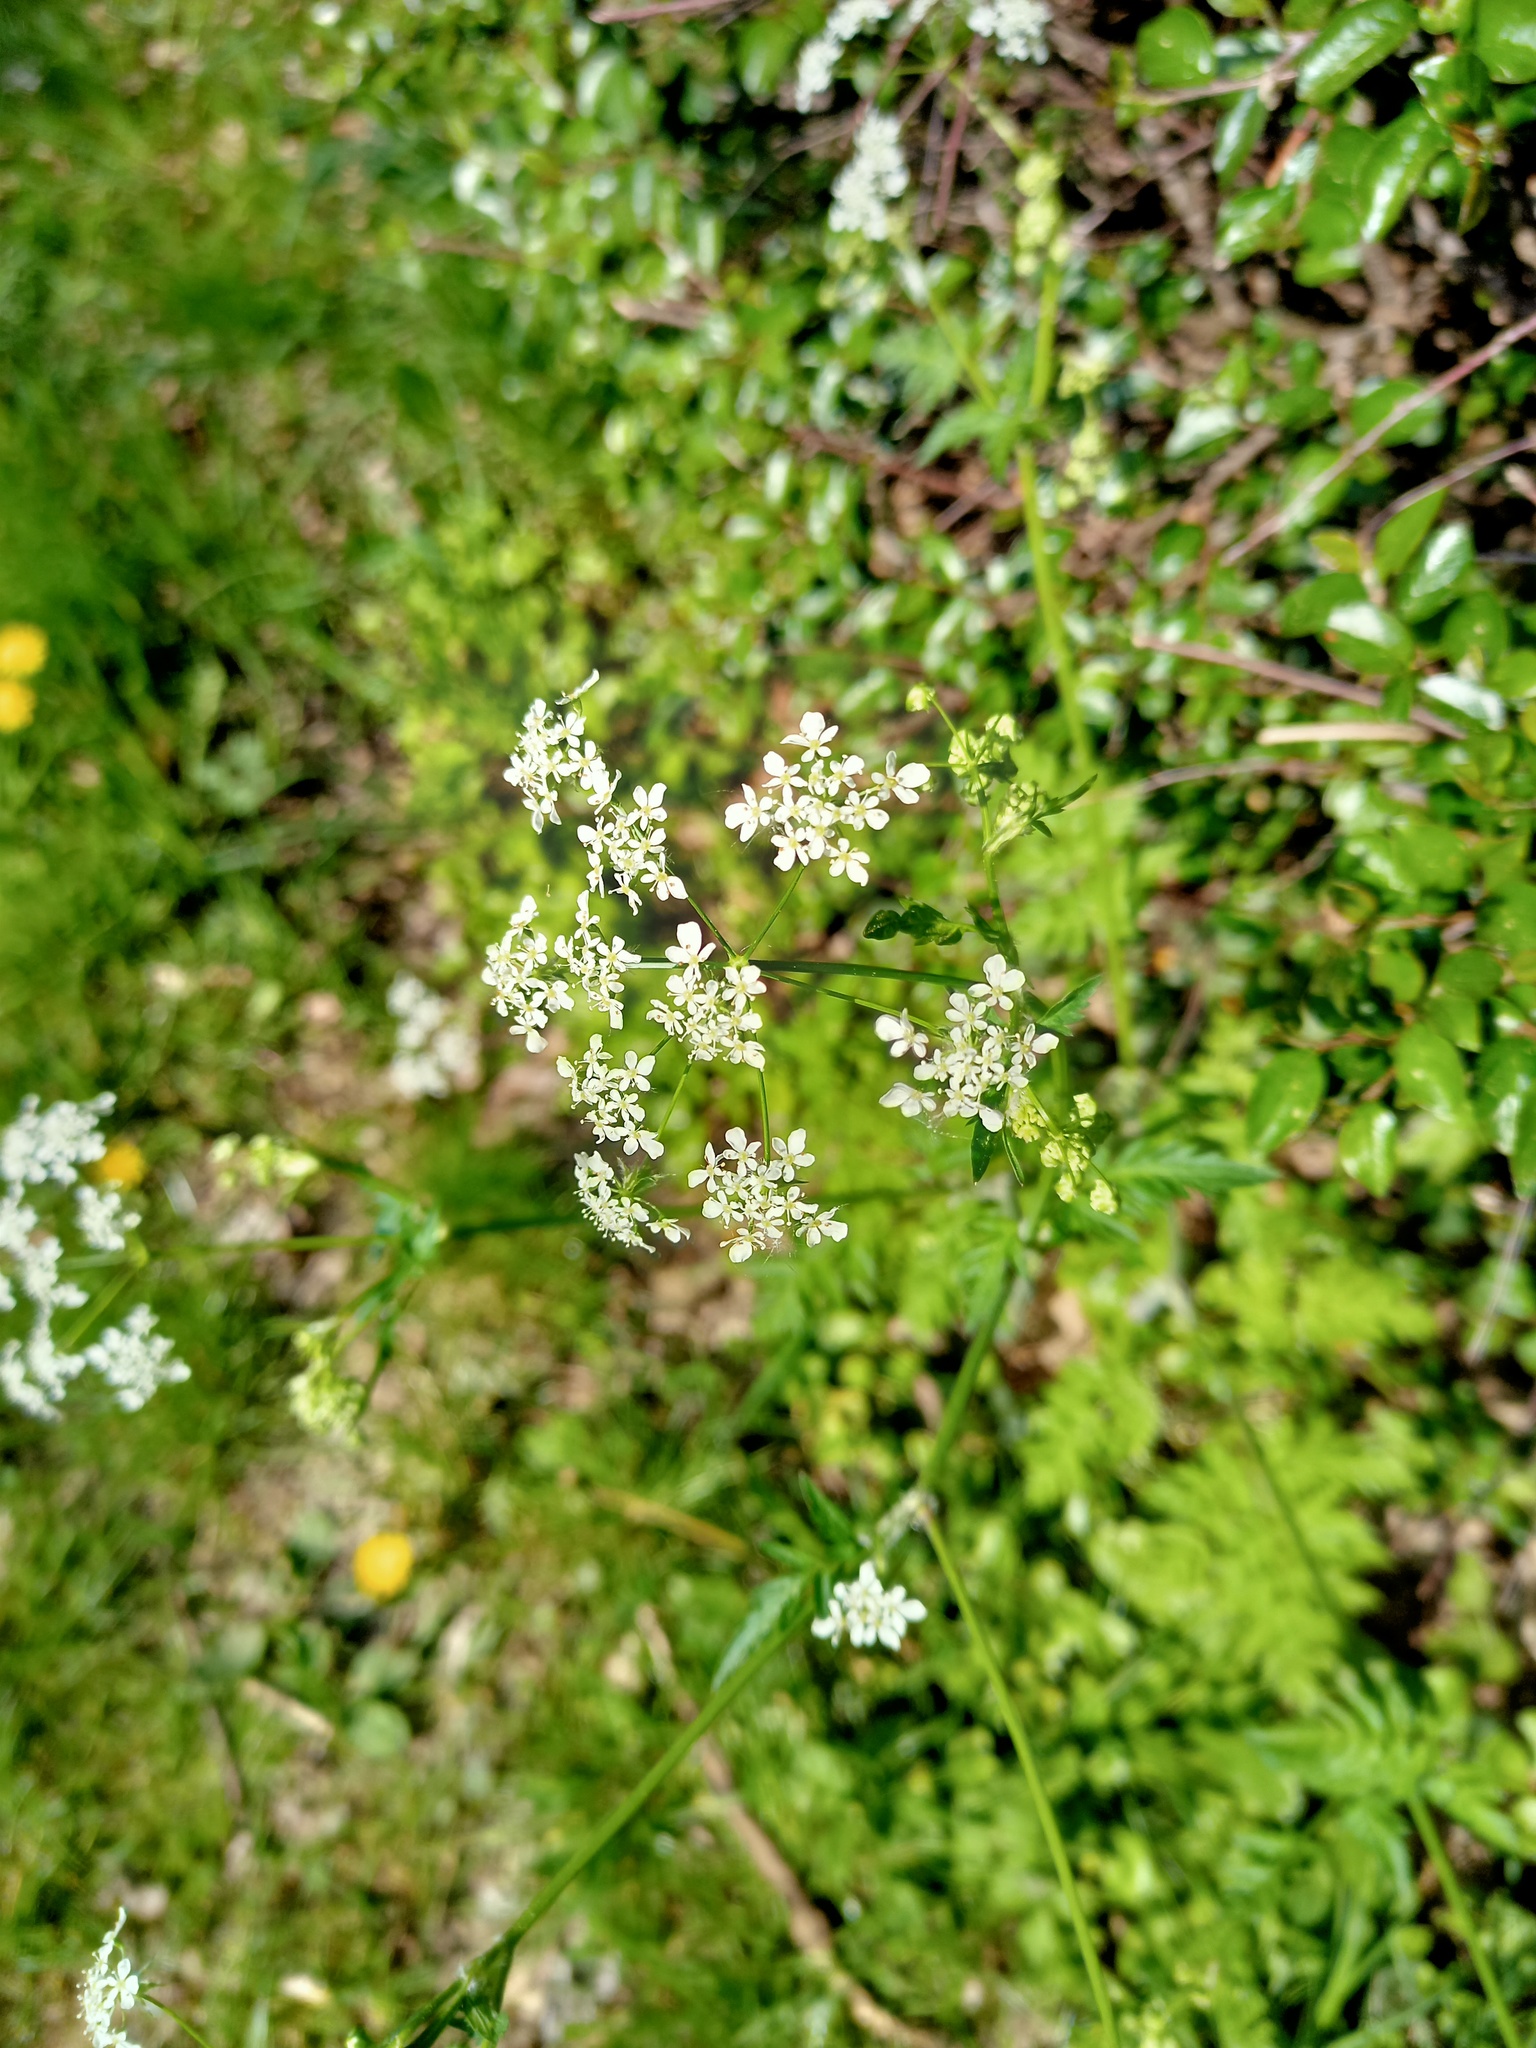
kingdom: Plantae
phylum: Tracheophyta
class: Magnoliopsida
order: Apiales
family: Apiaceae
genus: Anthriscus
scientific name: Anthriscus sylvestris
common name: Cow parsley
